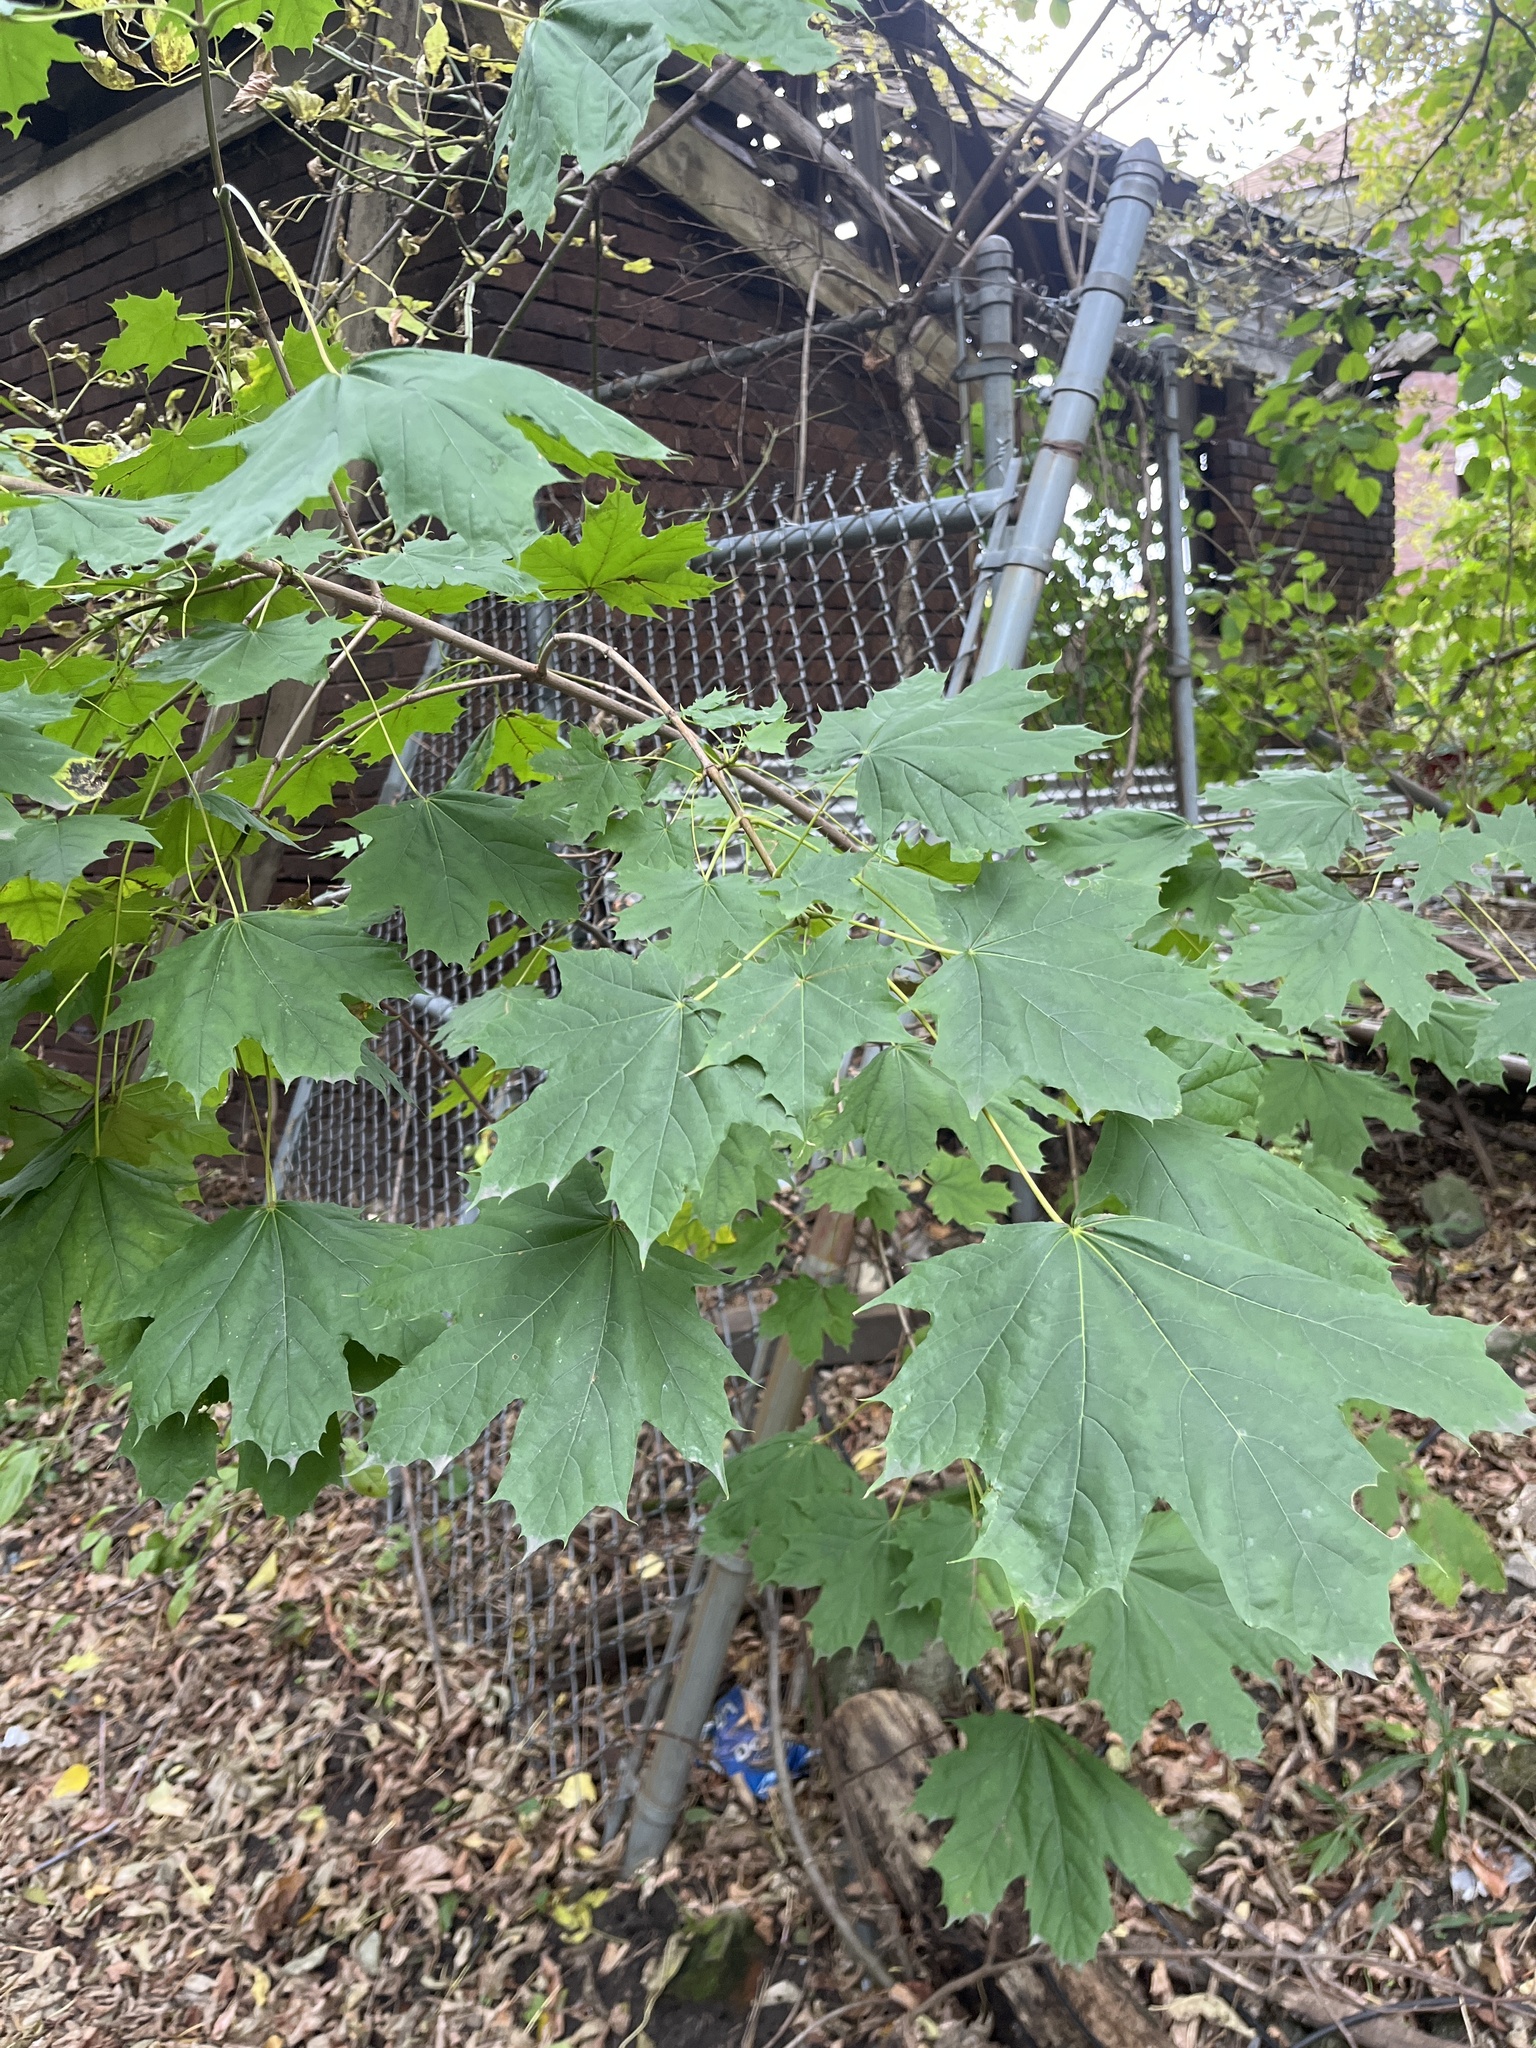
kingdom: Plantae
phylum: Tracheophyta
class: Magnoliopsida
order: Sapindales
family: Sapindaceae
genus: Acer
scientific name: Acer platanoides
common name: Norway maple
